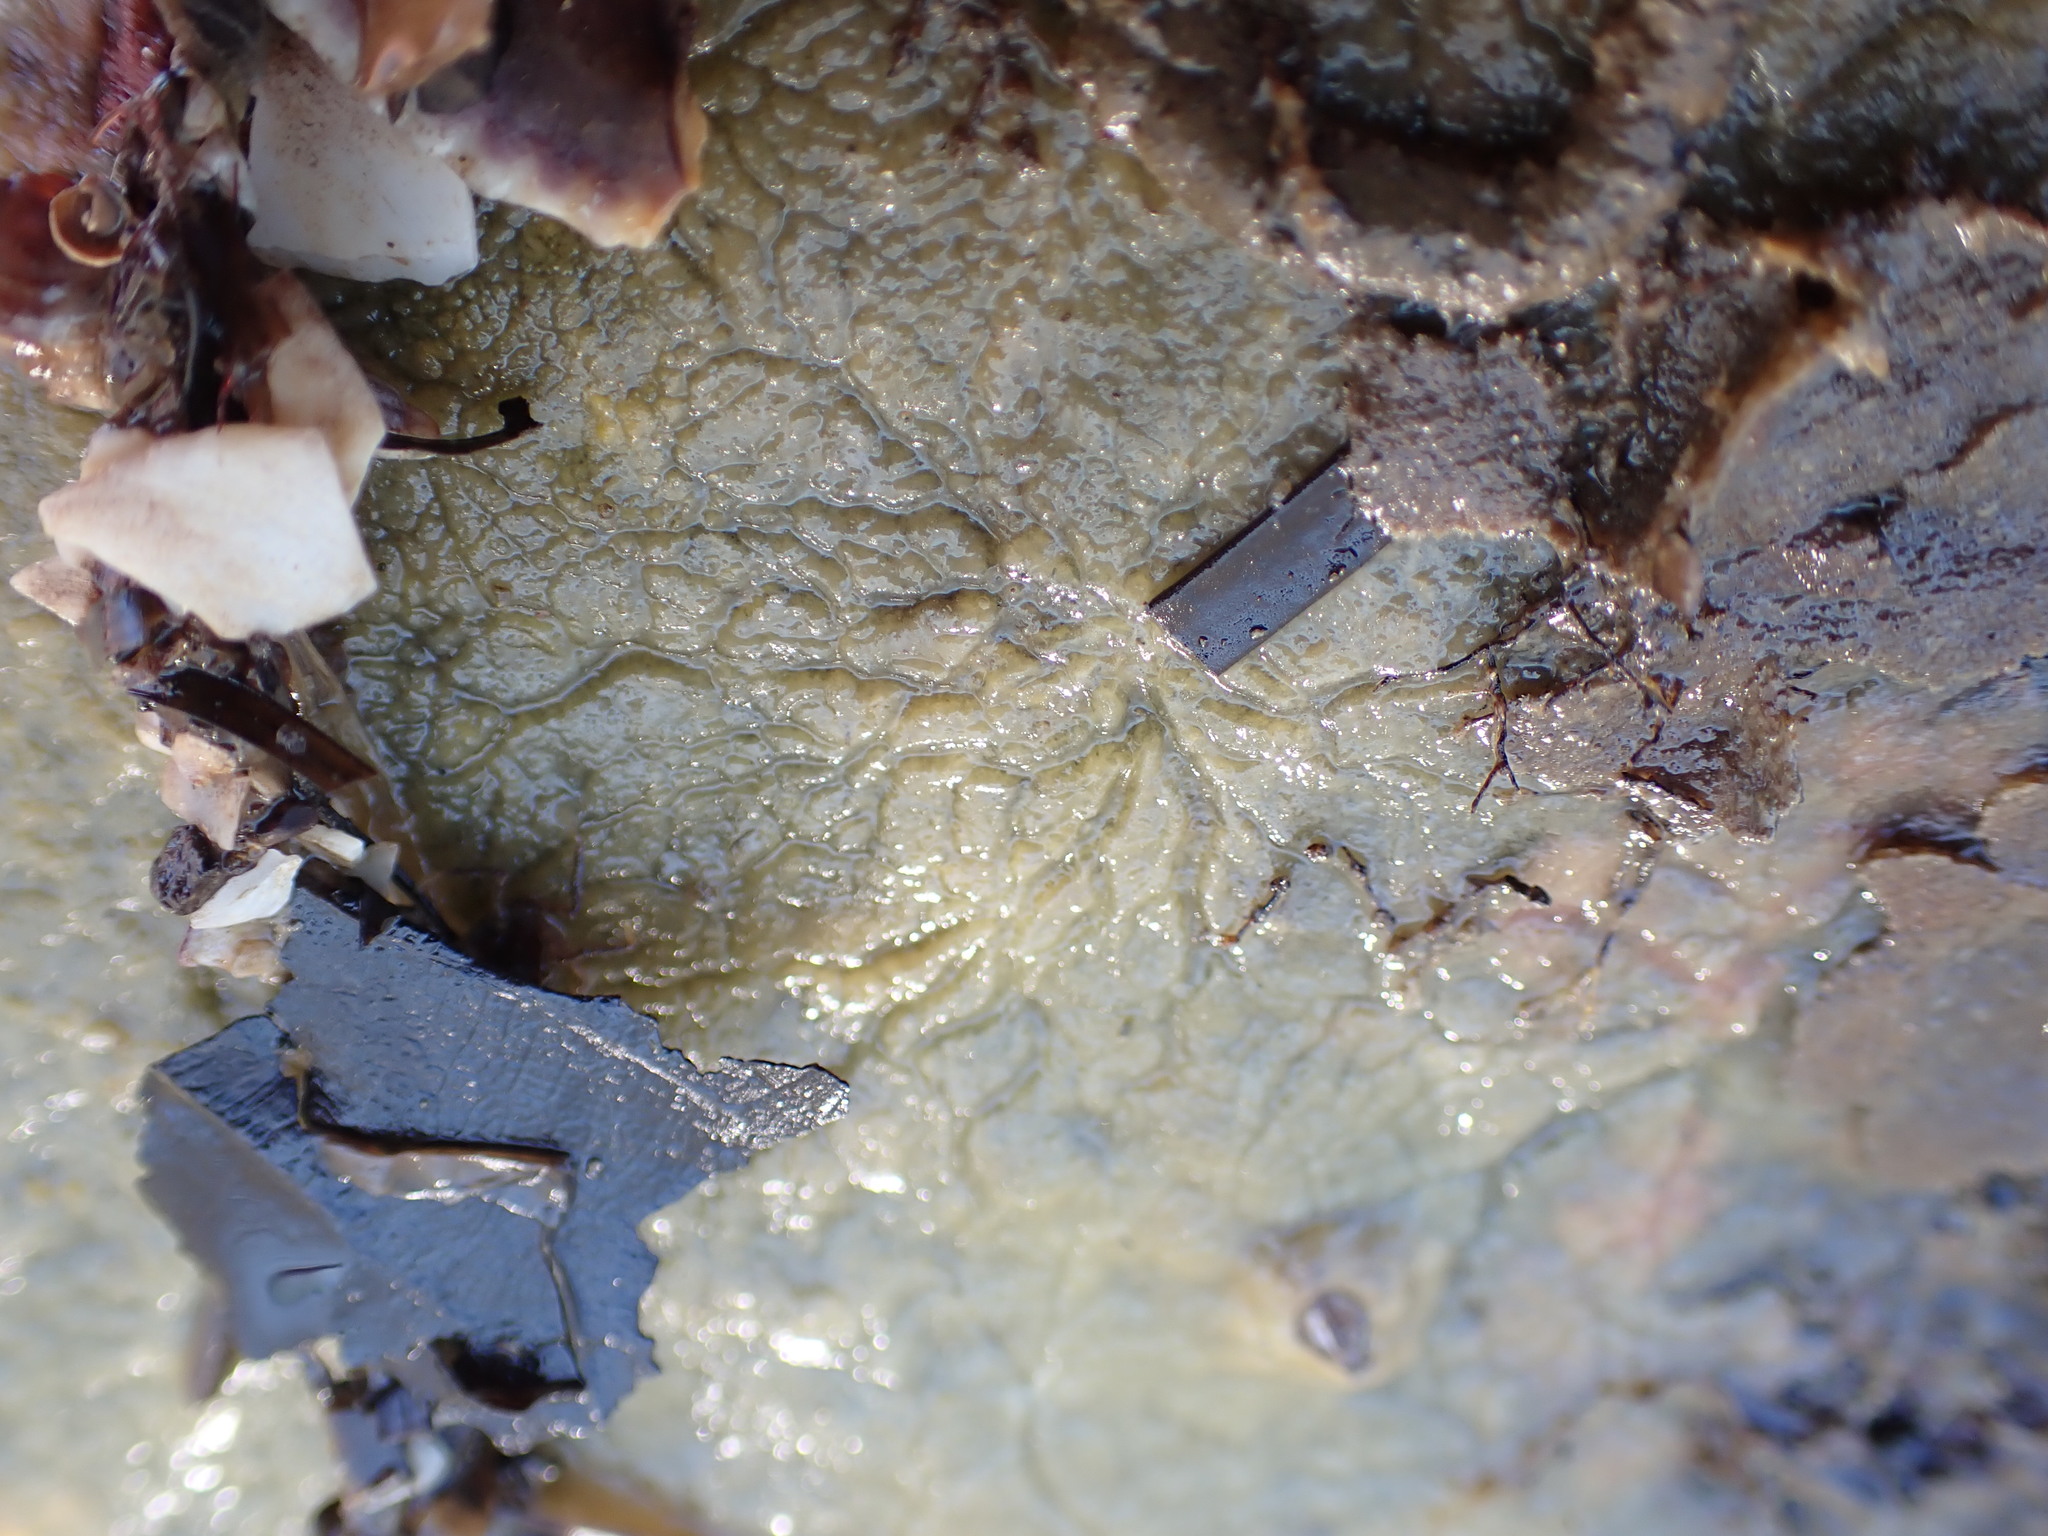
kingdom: Animalia
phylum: Porifera
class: Demospongiae
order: Tethyida
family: Timeidae
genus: Timea
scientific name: Timea aurantiaca
